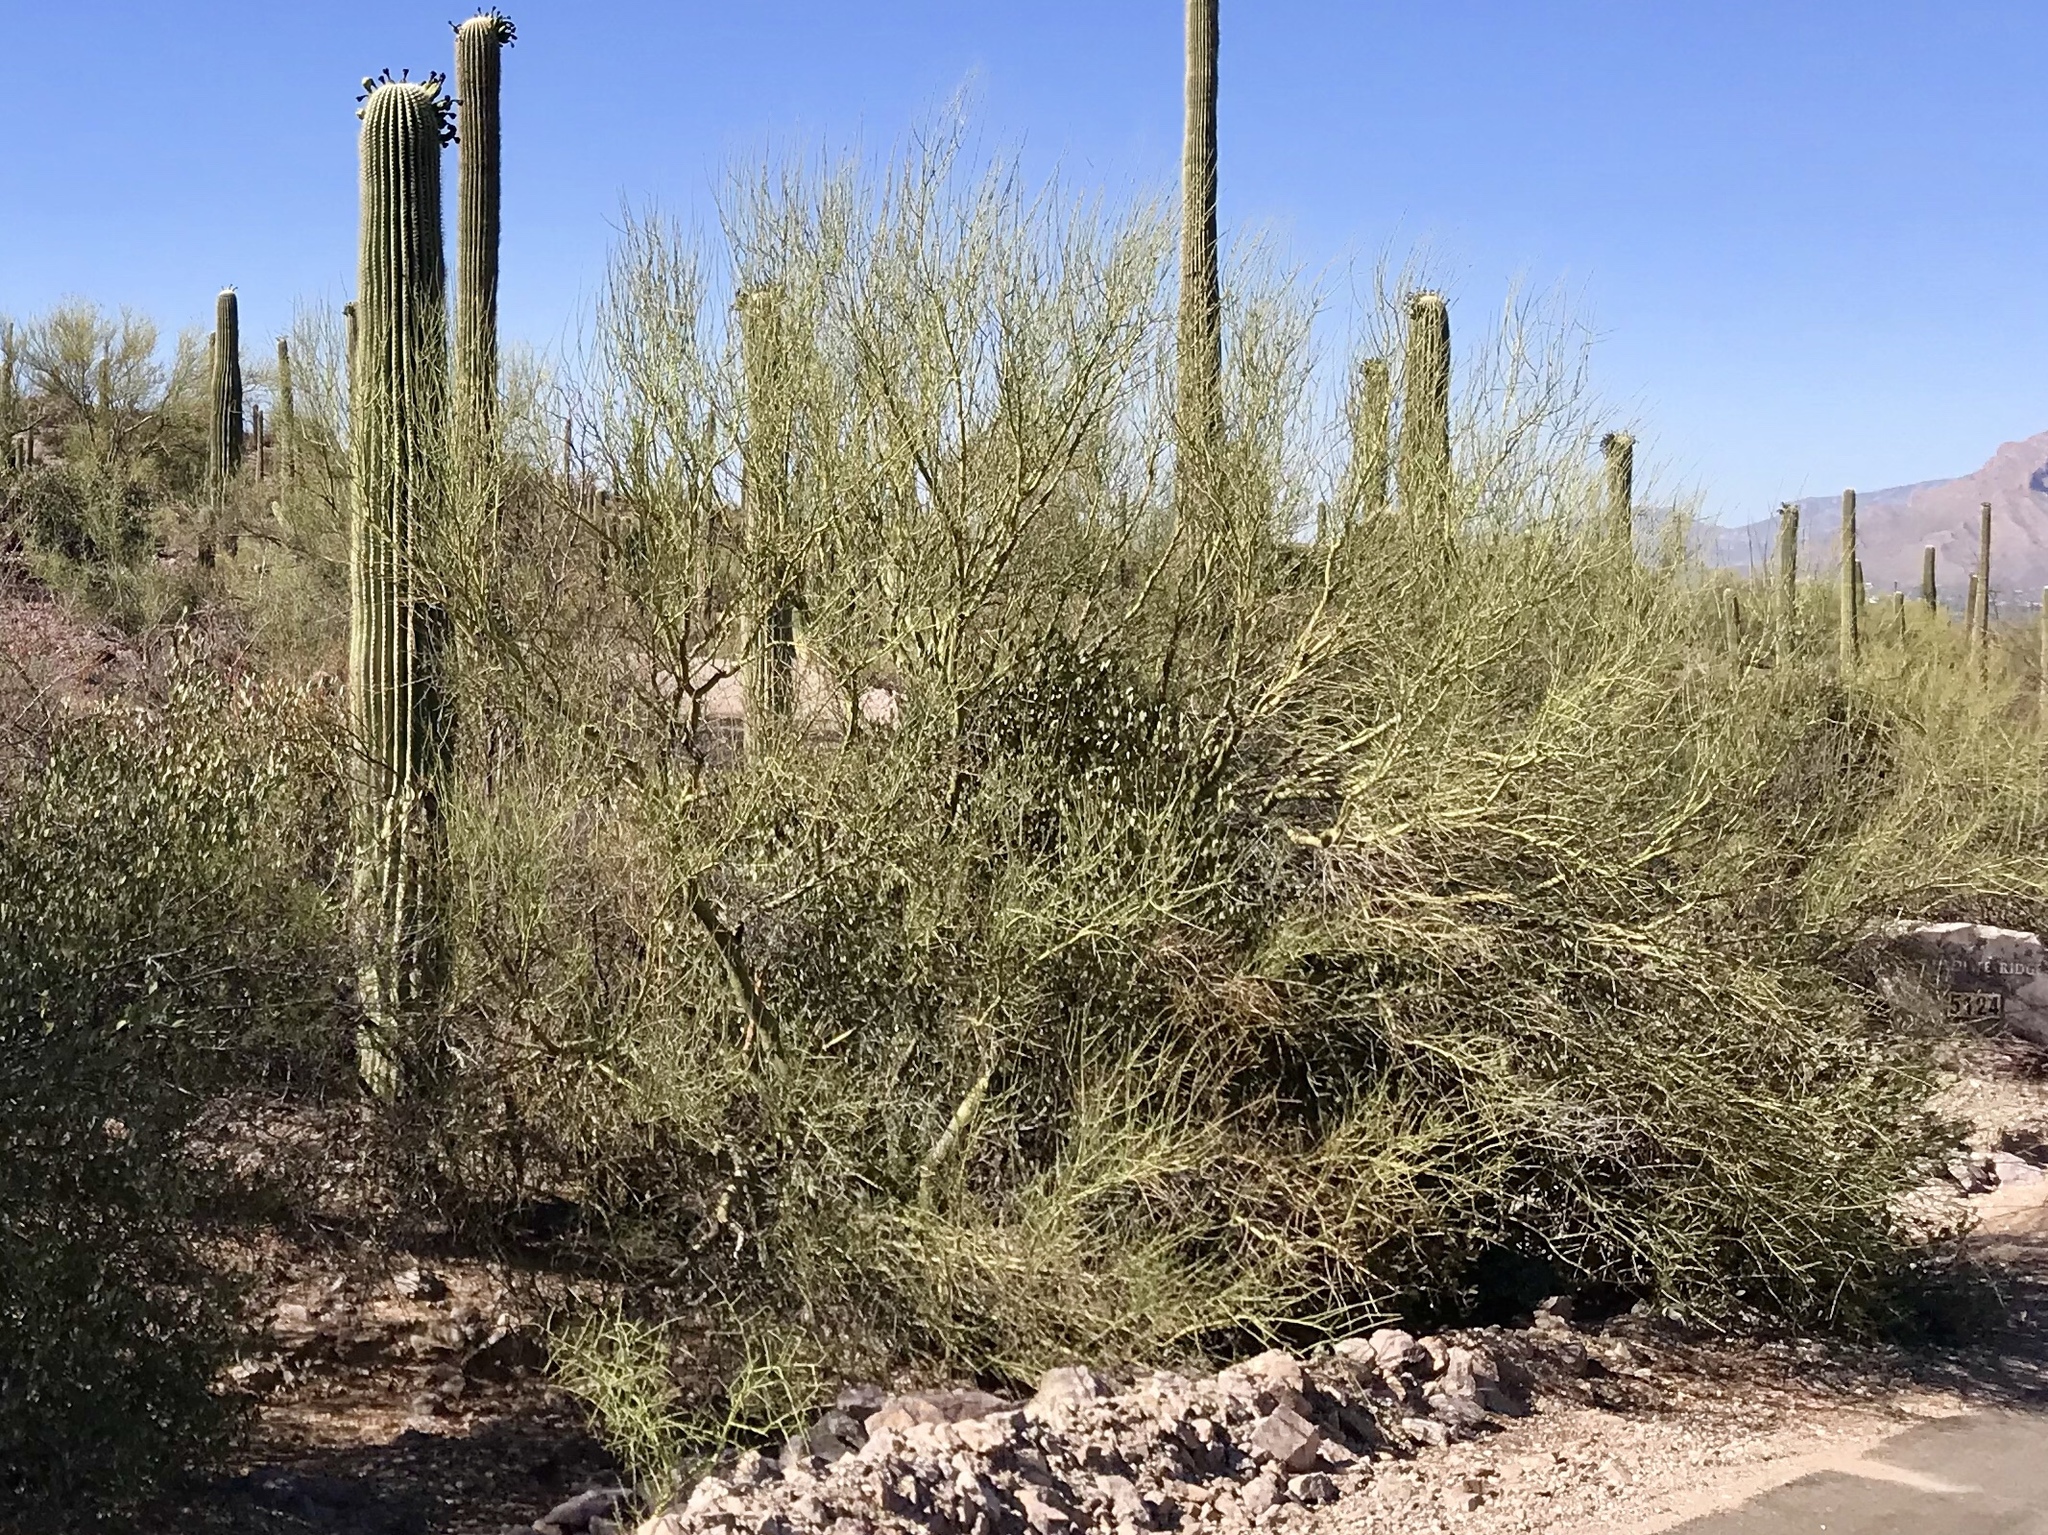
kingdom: Plantae
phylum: Tracheophyta
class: Magnoliopsida
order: Fabales
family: Fabaceae
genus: Parkinsonia
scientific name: Parkinsonia microphylla
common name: Yellow paloverde
